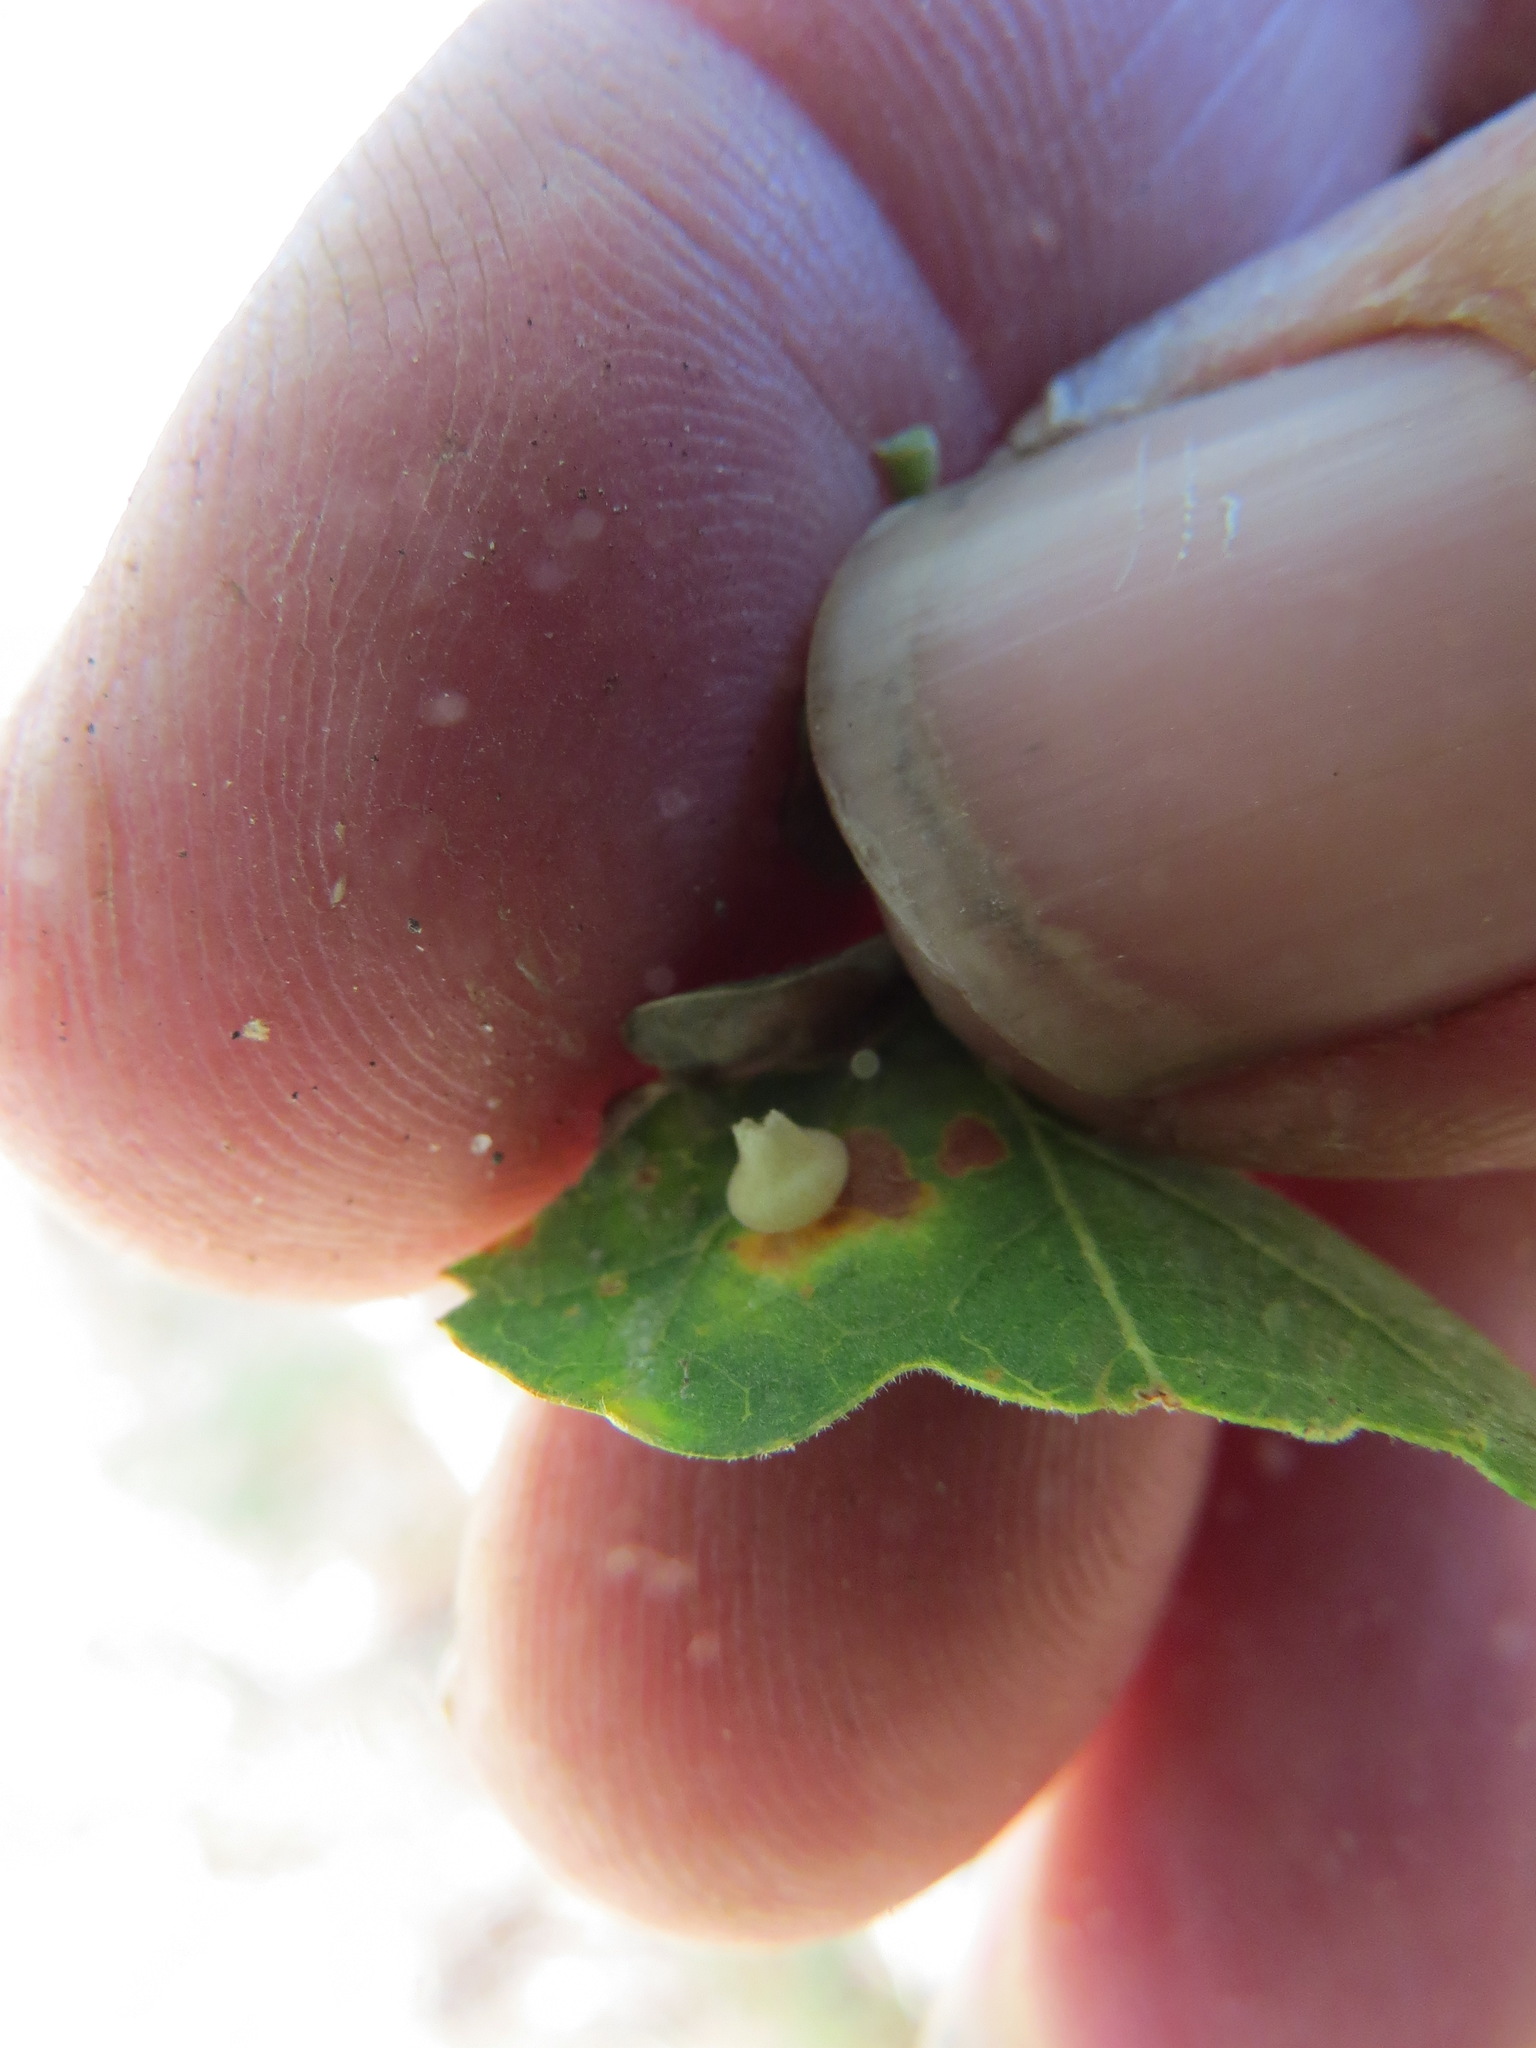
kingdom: Animalia
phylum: Arthropoda
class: Insecta
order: Hymenoptera
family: Cynipidae
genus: Andricus
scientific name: Andricus
